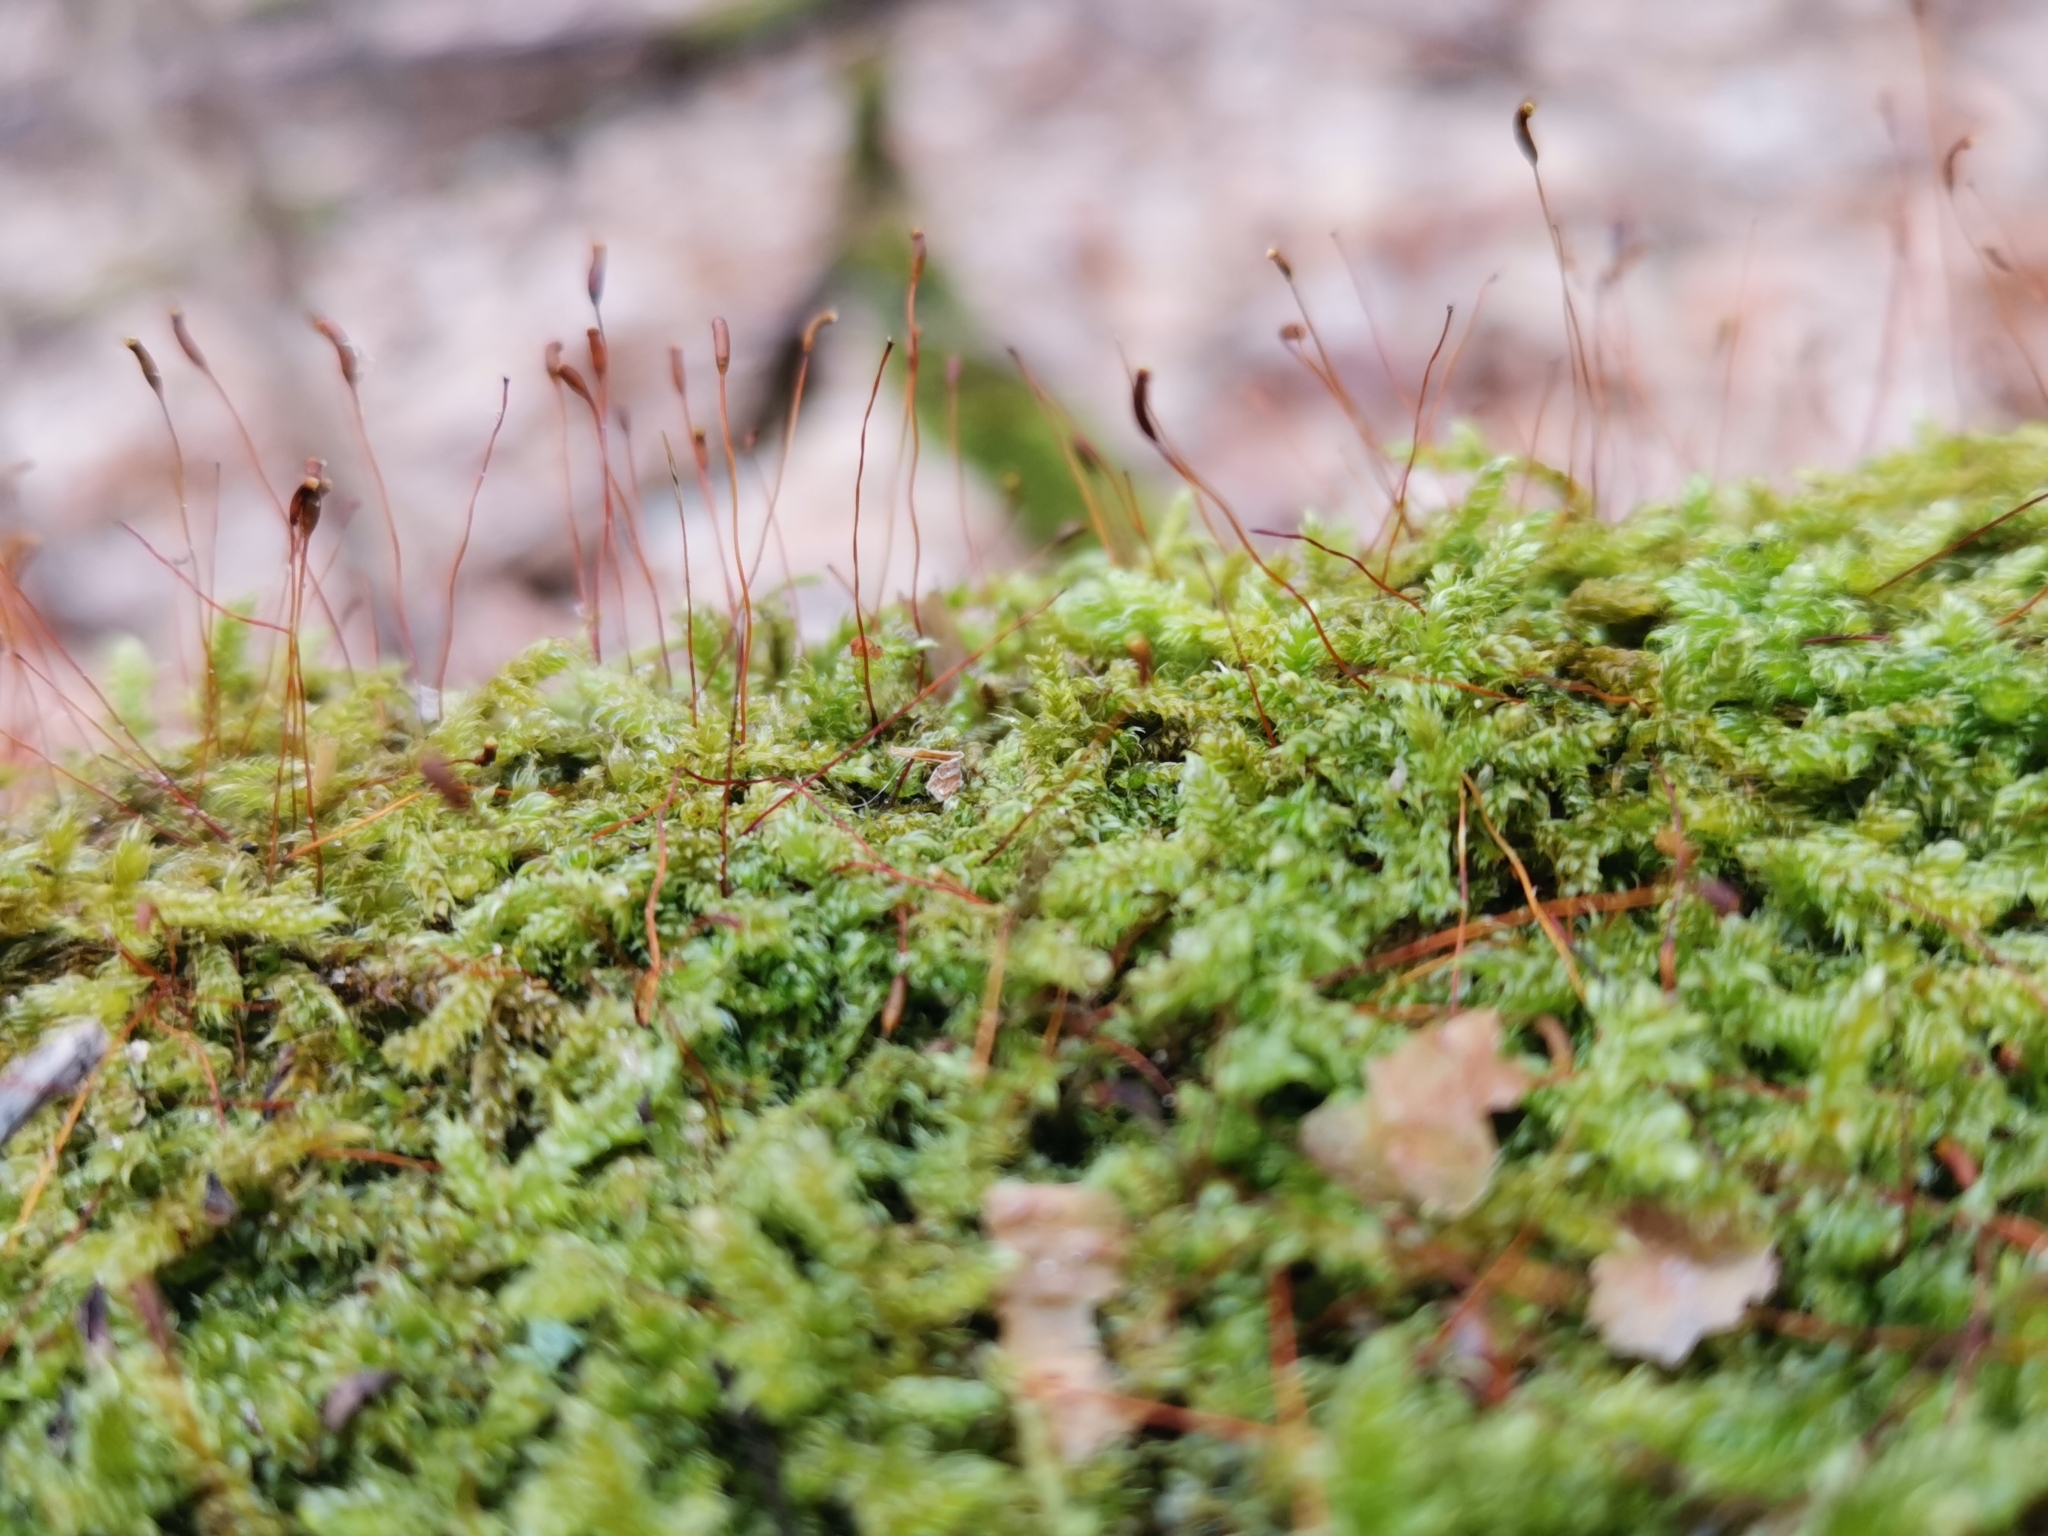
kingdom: Plantae
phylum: Bryophyta
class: Bryopsida
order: Hypnales
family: Hypnaceae
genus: Hypnum
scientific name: Hypnum cupressiforme
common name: Cypress-leaved plait-moss
